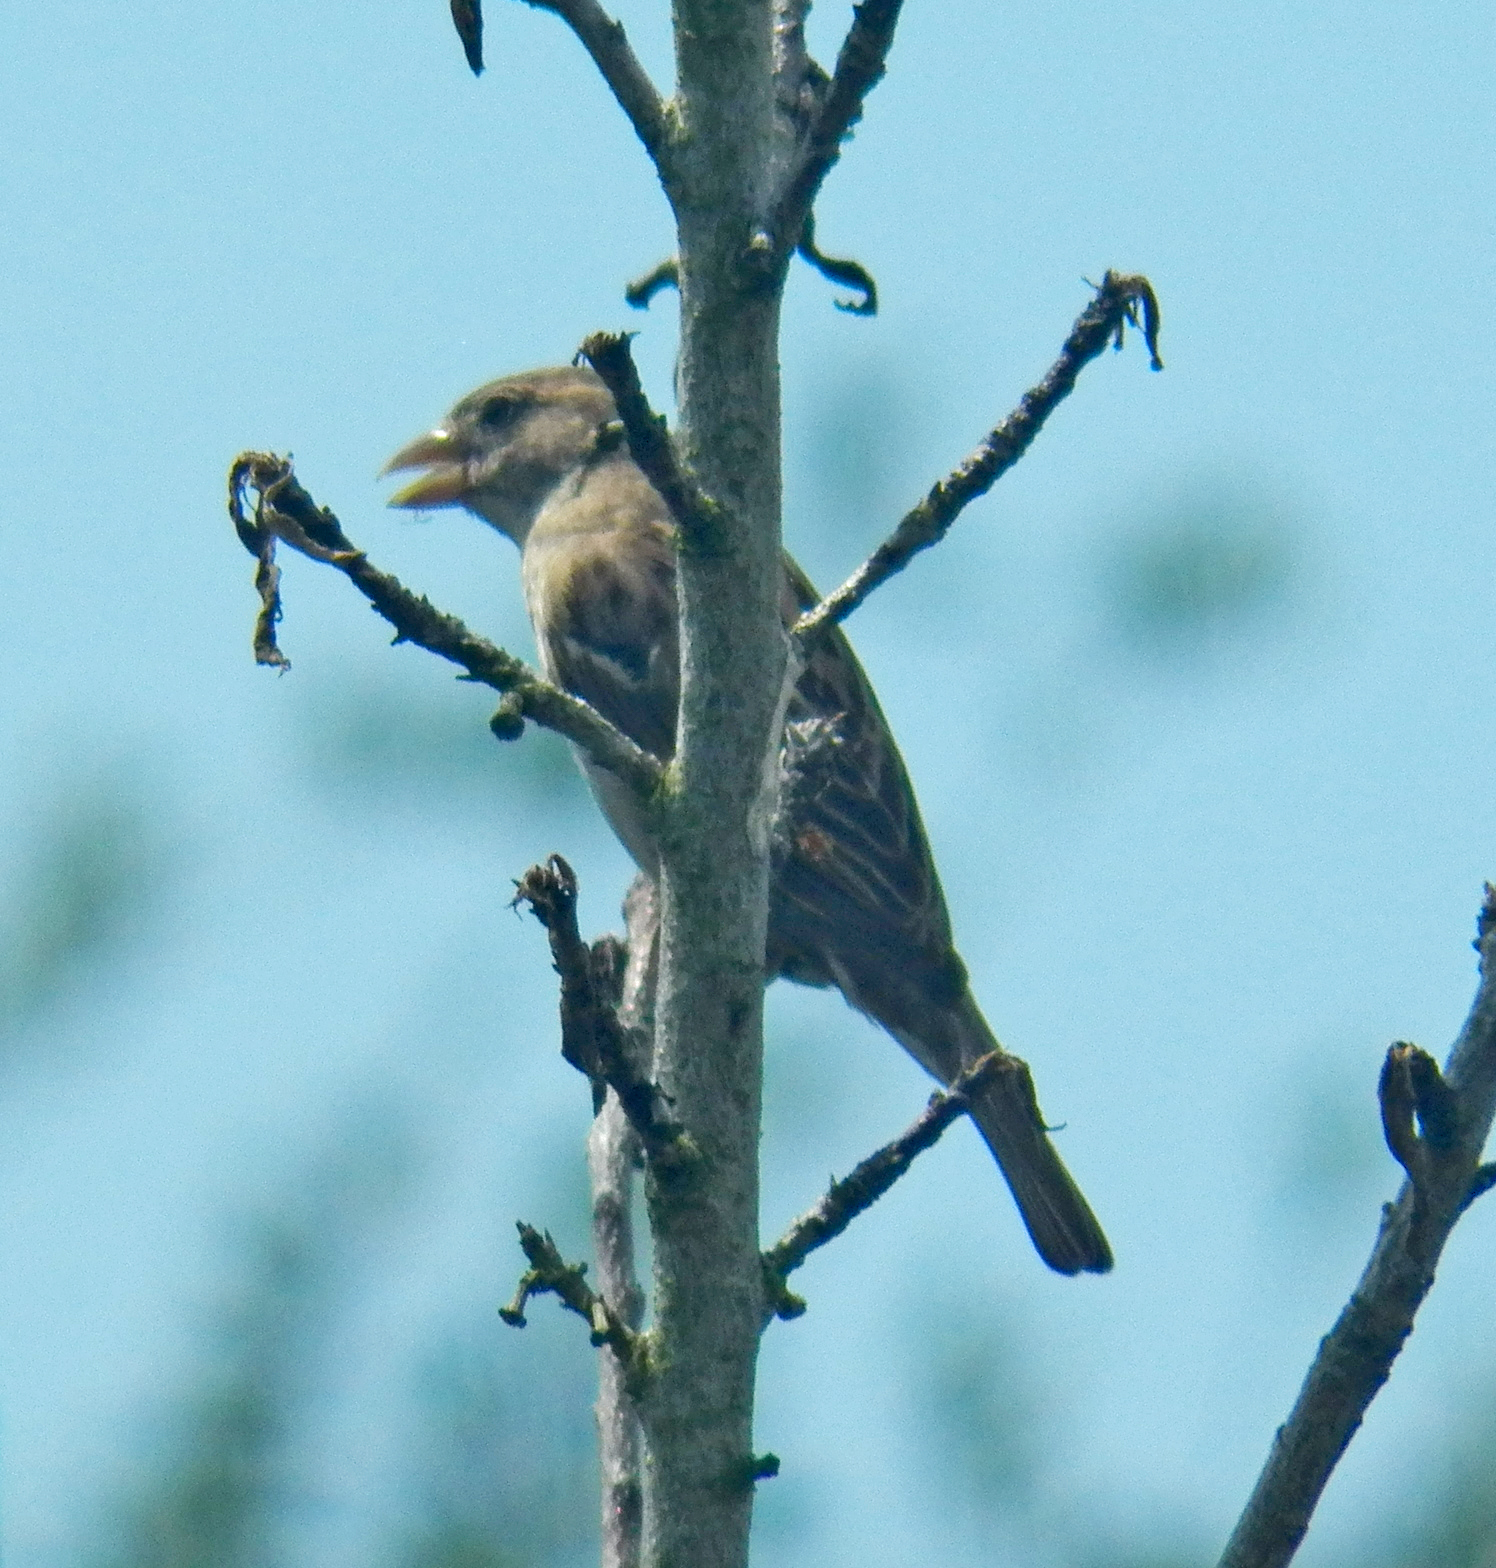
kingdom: Animalia
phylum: Chordata
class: Aves
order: Passeriformes
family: Passeridae
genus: Passer
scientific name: Passer domesticus
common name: House sparrow
